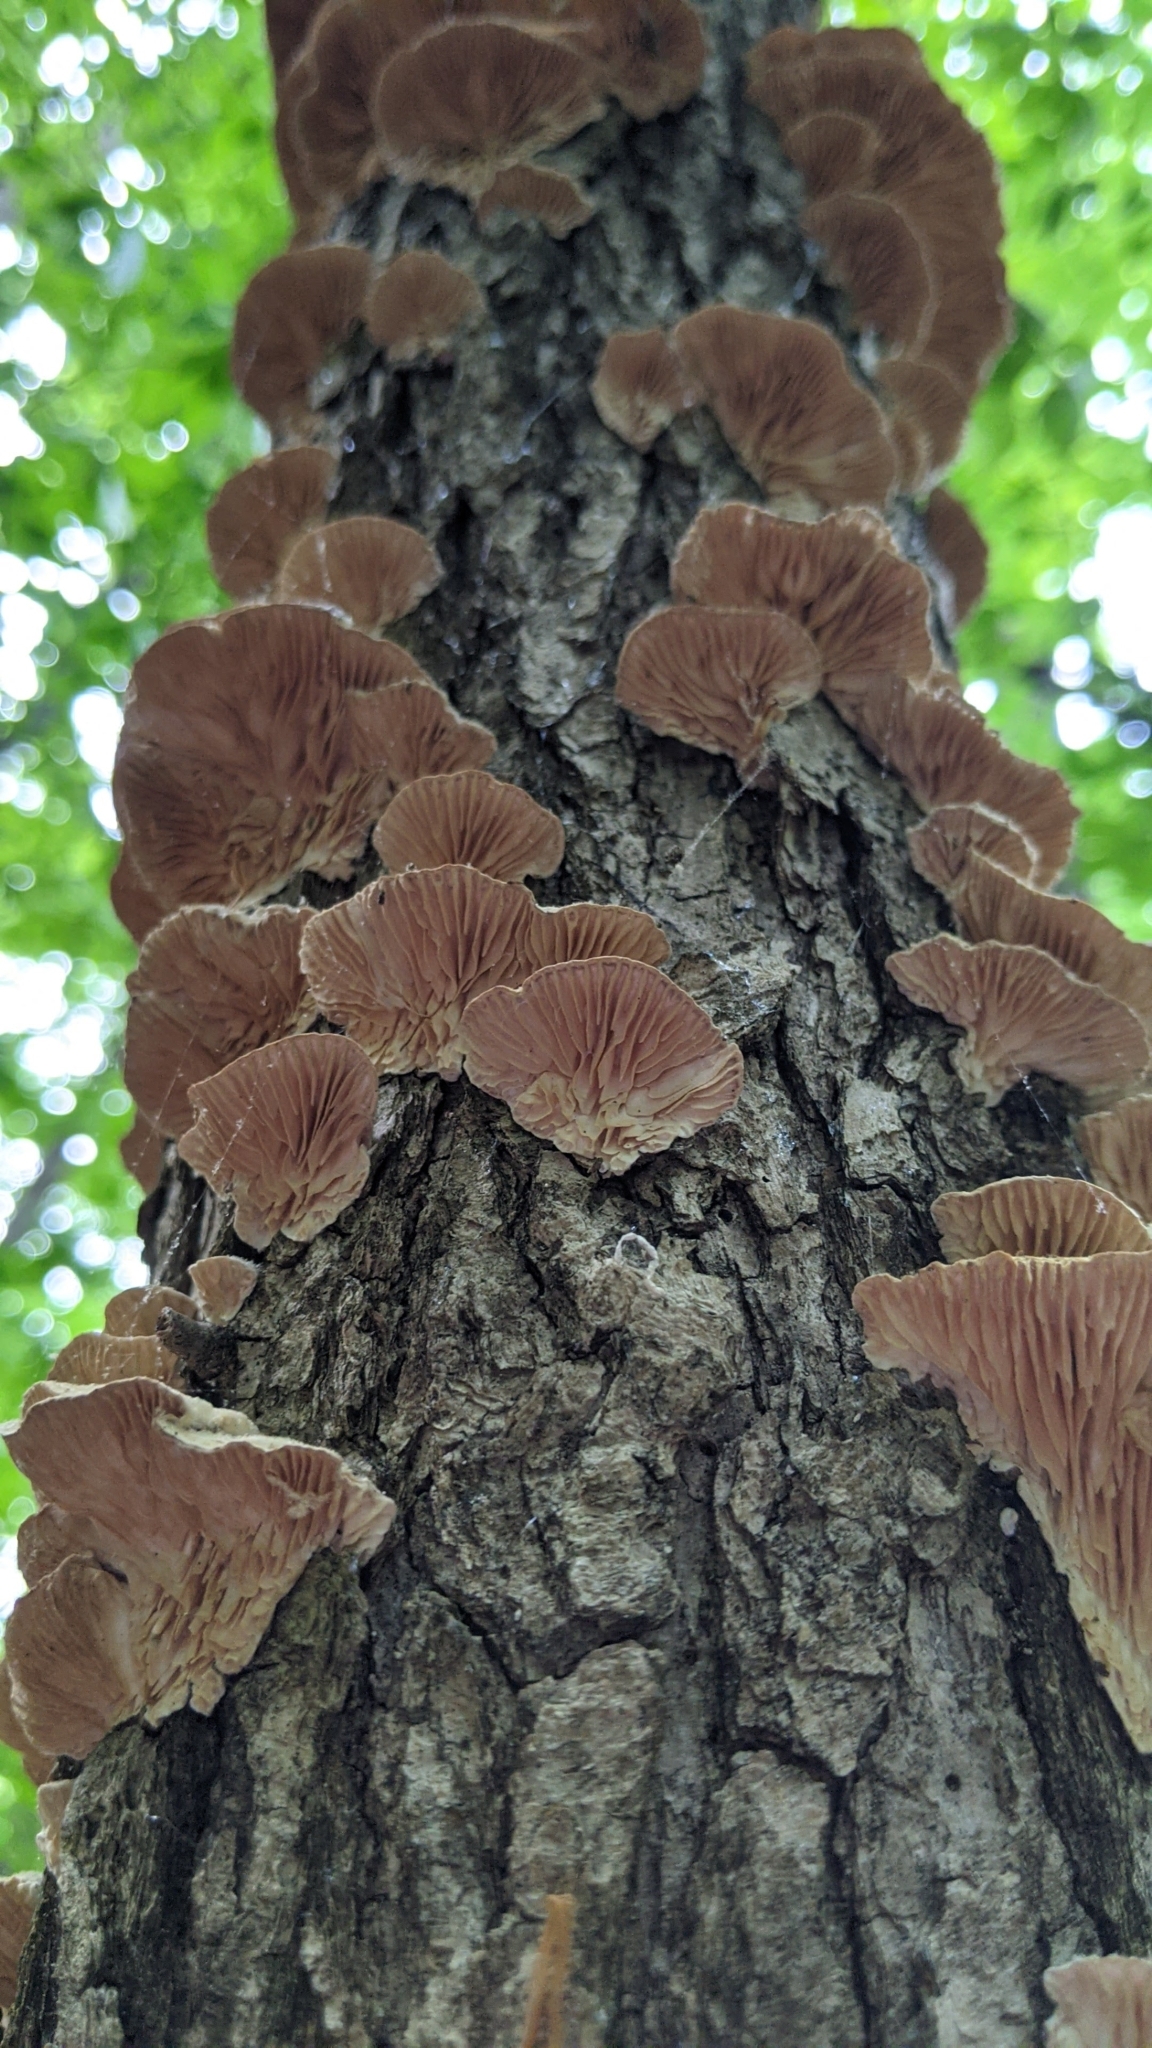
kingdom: Fungi
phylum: Basidiomycota
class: Agaricomycetes
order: Polyporales
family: Polyporaceae
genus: Lenzites
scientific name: Lenzites betulinus
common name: Birch mazegill
